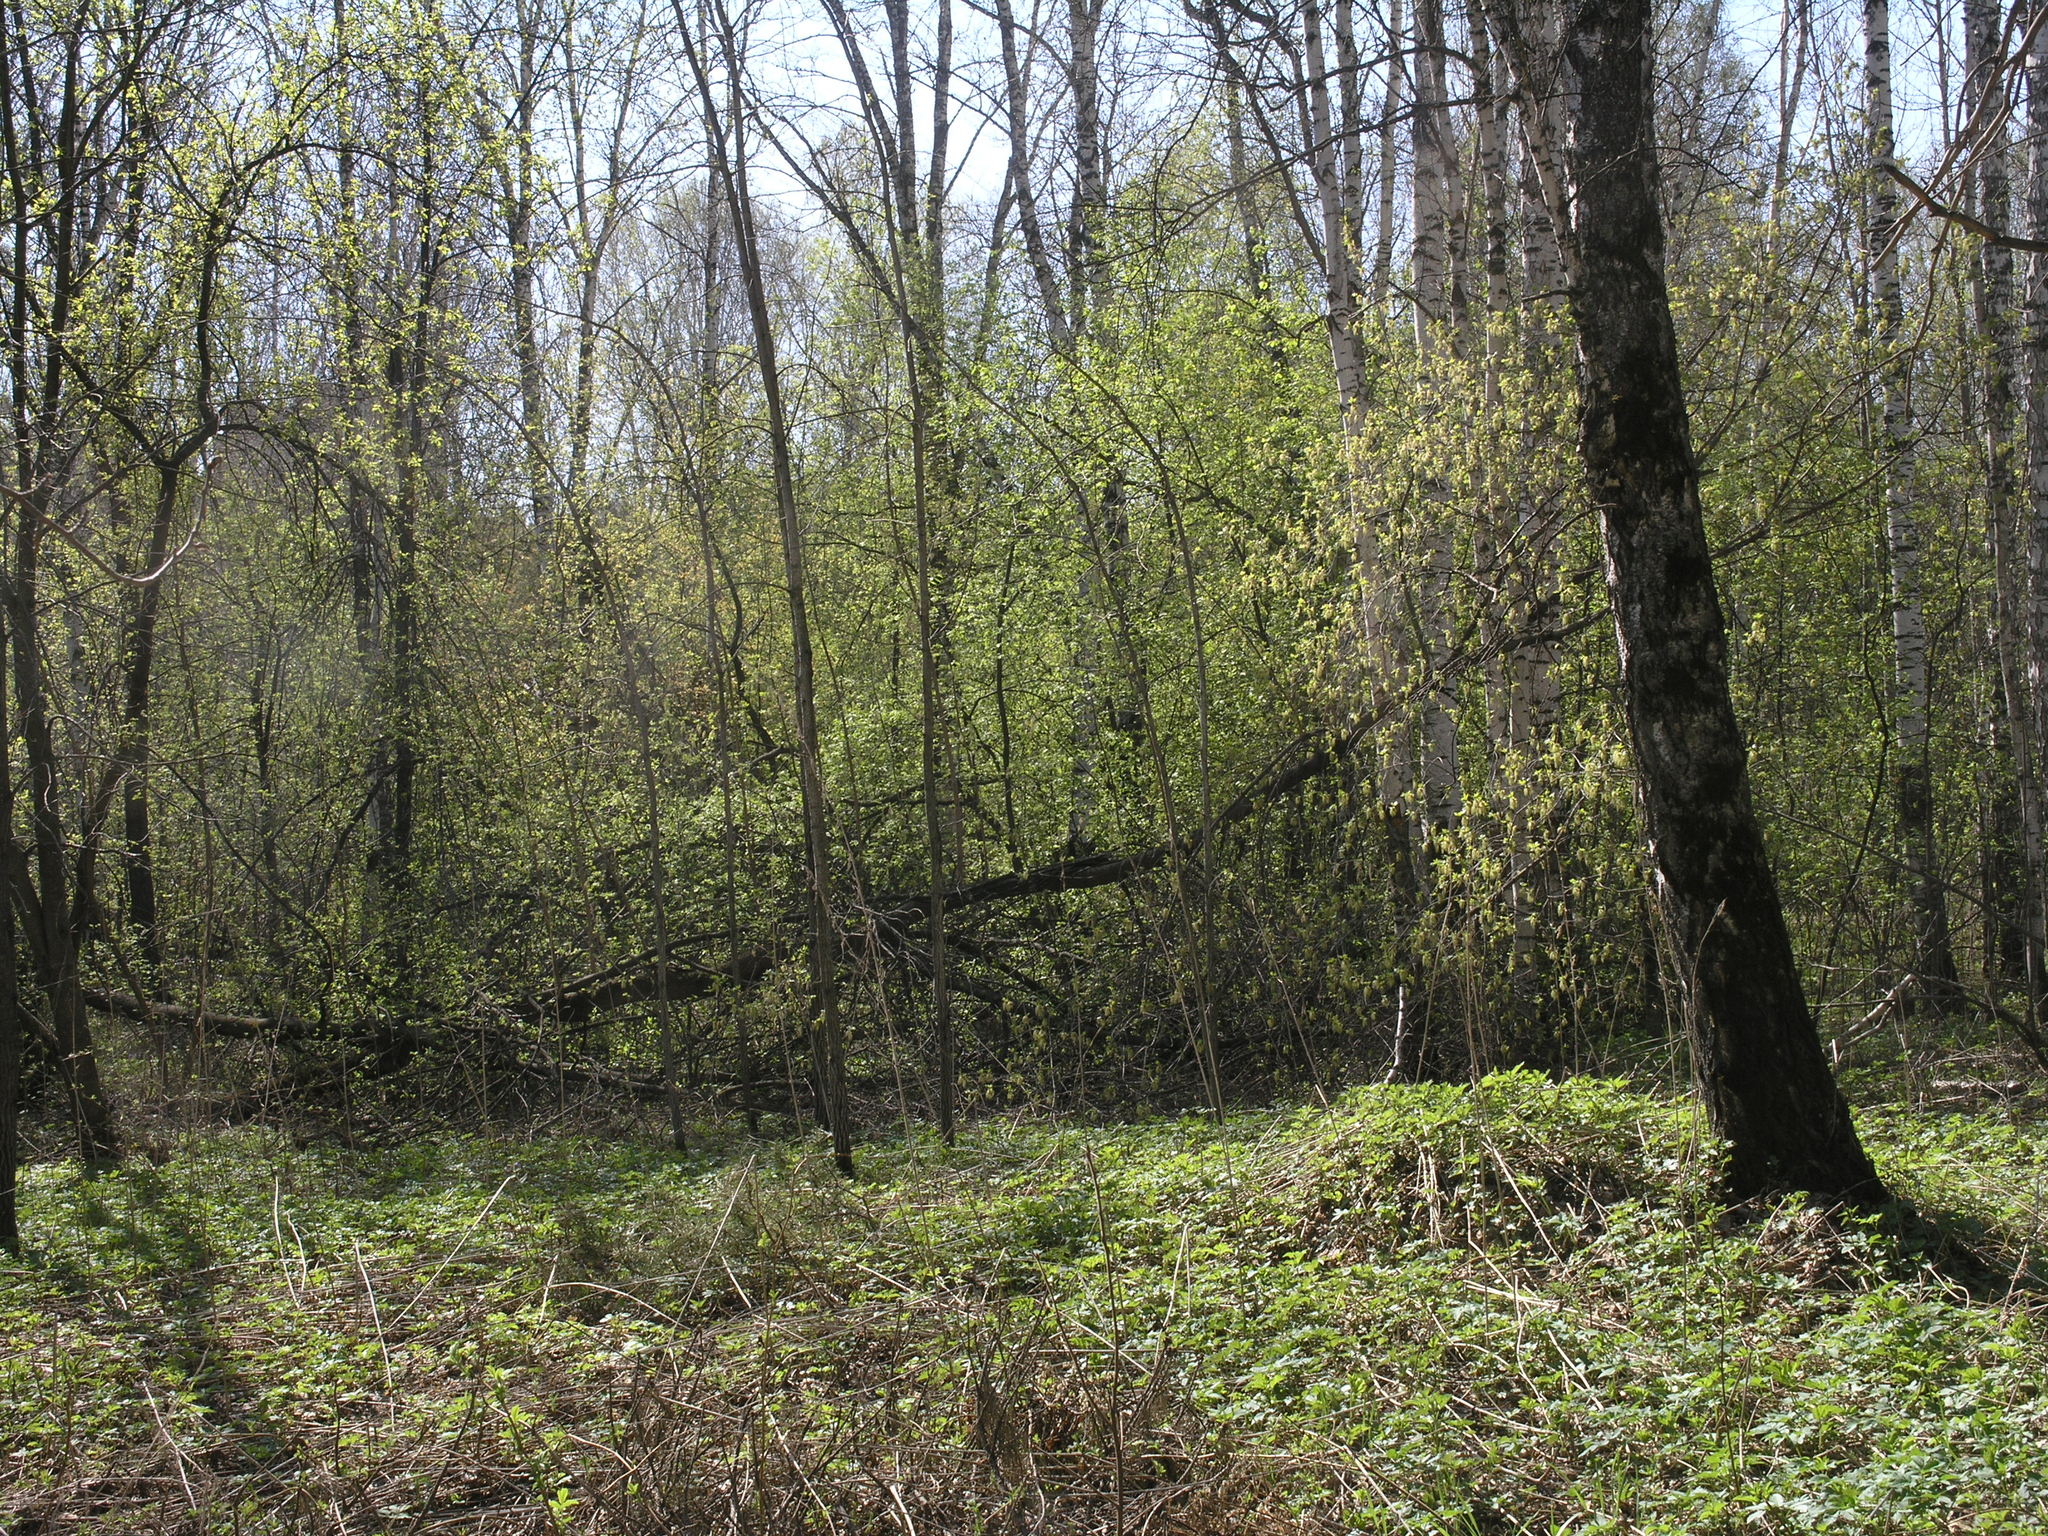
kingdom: Plantae
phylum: Tracheophyta
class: Magnoliopsida
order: Rosales
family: Rosaceae
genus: Prunus
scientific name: Prunus padus
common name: Bird cherry
